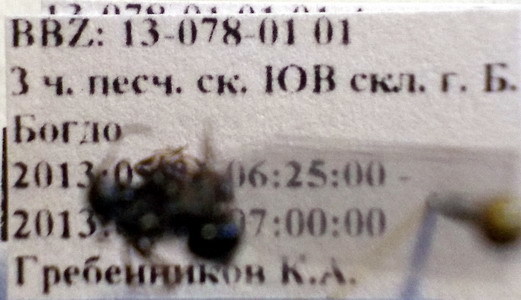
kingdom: Animalia
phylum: Arthropoda
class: Insecta
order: Hymenoptera
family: Formicidae
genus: Camponotus
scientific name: Camponotus piceus
